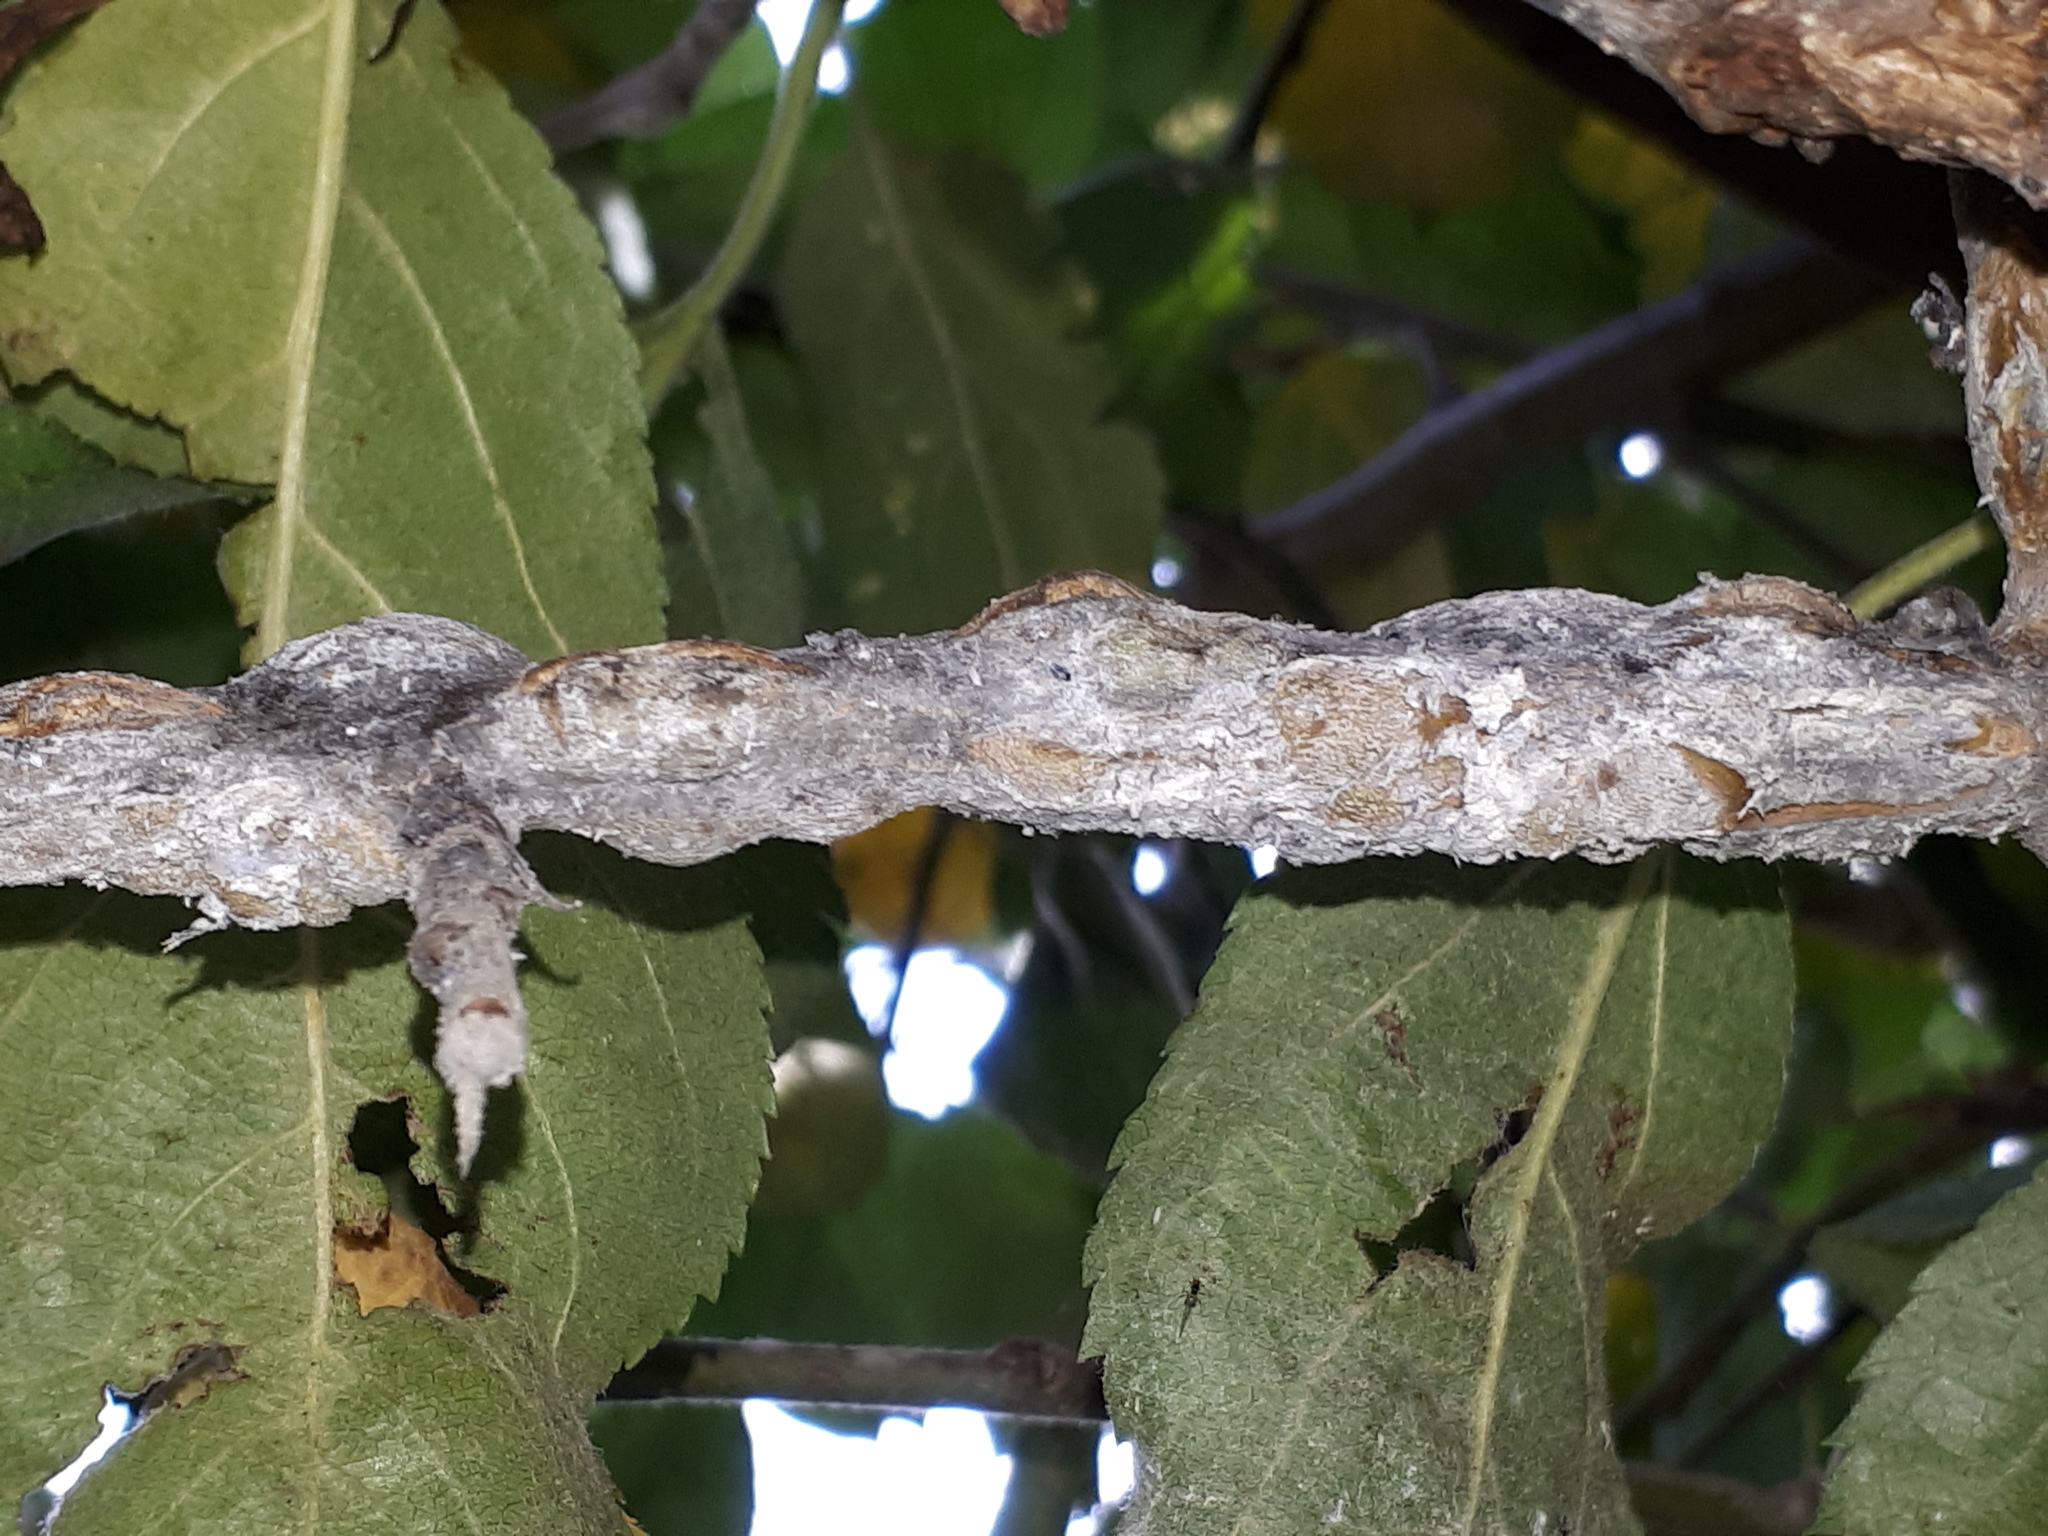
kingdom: Animalia
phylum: Arthropoda
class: Insecta
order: Hemiptera
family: Aphididae
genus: Eriosoma
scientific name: Eriosoma lanigerum
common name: Woolly apple aphid
